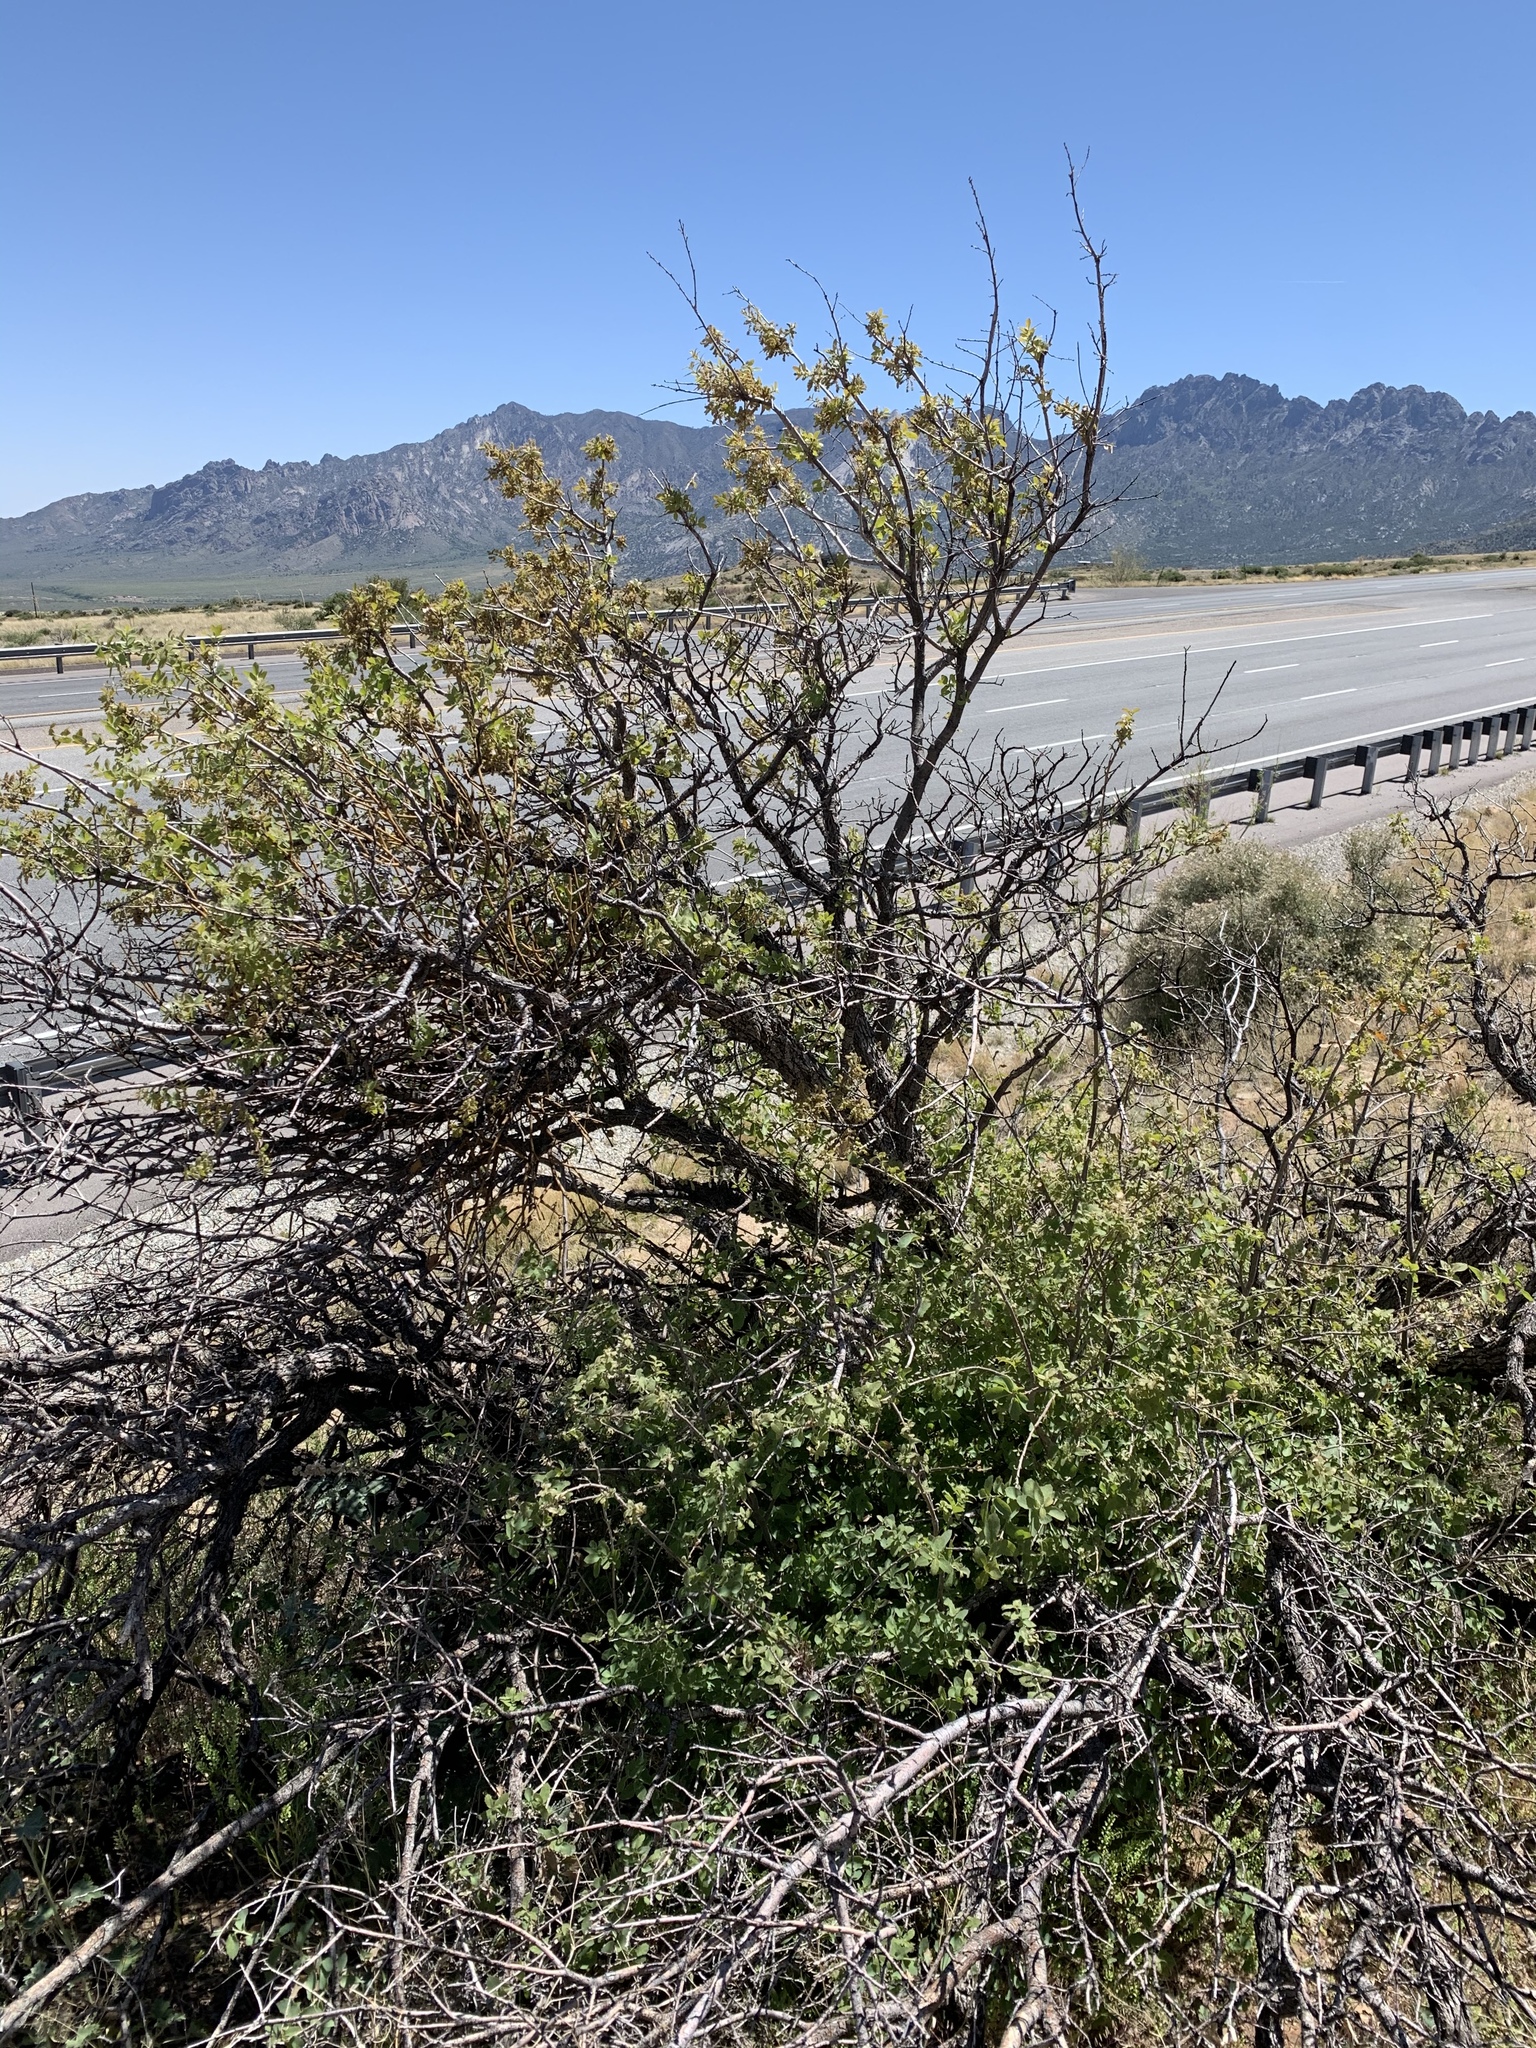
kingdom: Plantae
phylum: Tracheophyta
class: Magnoliopsida
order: Sapindales
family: Anacardiaceae
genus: Rhus
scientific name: Rhus microphylla
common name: Desert sumac
